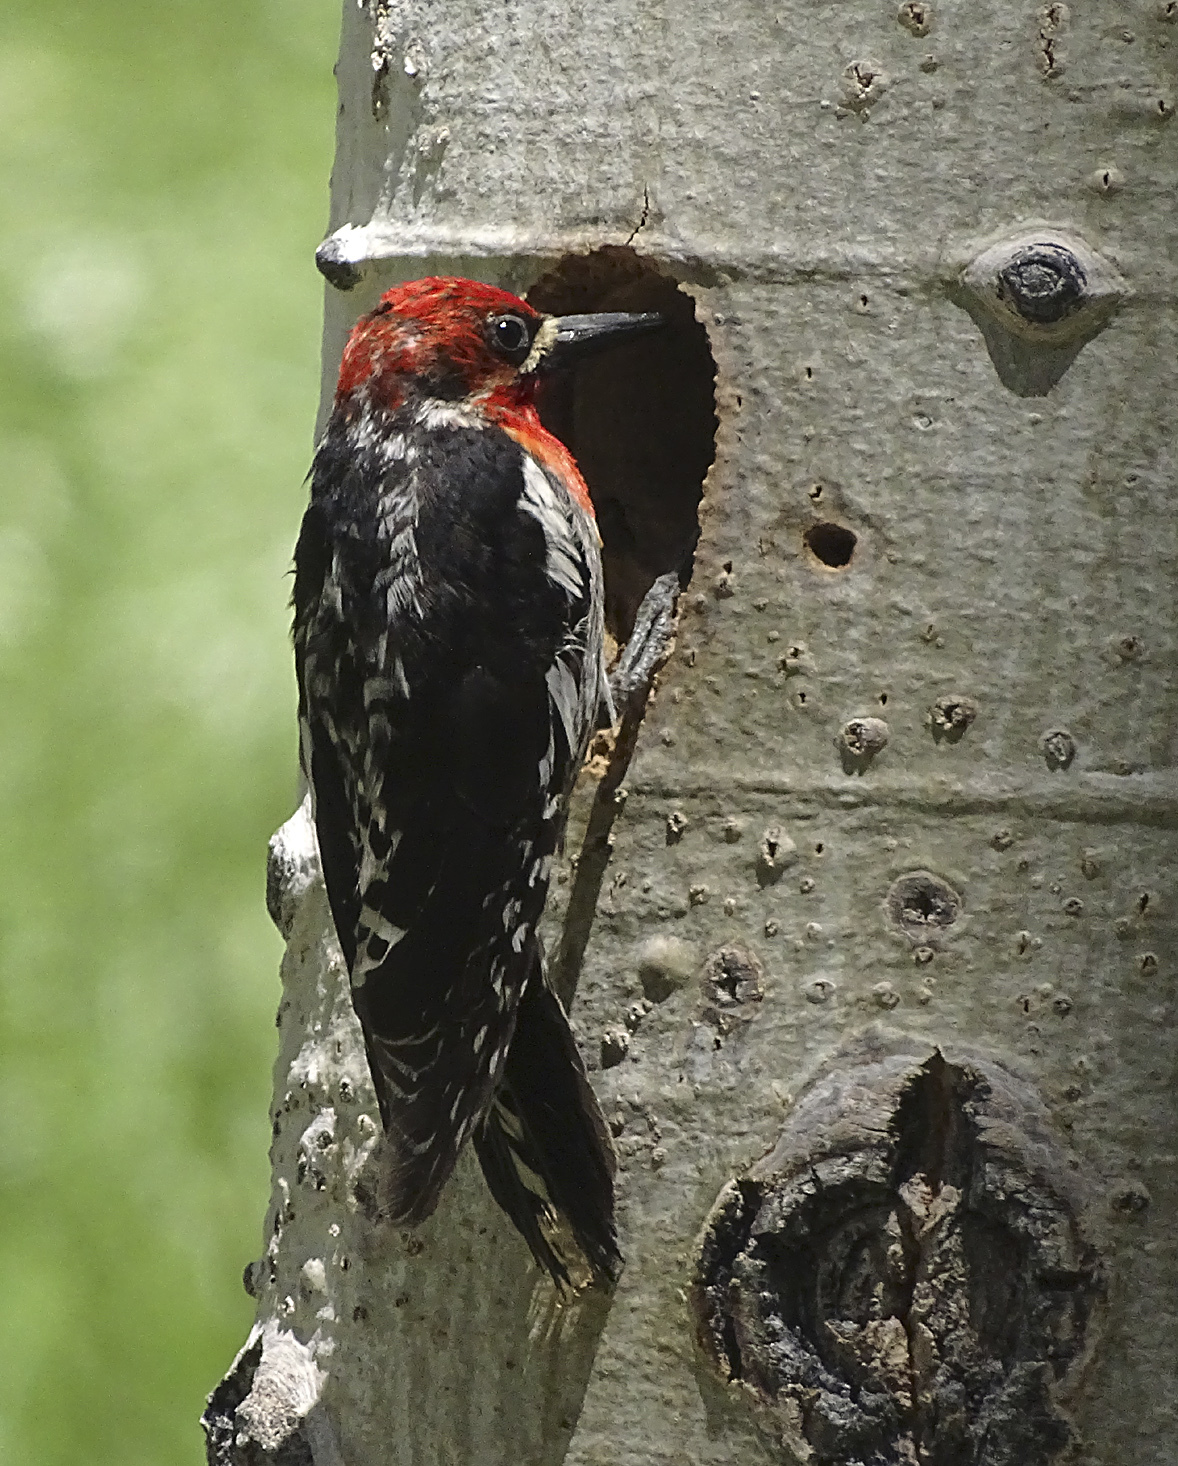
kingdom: Animalia
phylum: Chordata
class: Aves
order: Piciformes
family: Picidae
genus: Sphyrapicus
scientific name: Sphyrapicus ruber
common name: Red-breasted sapsucker
